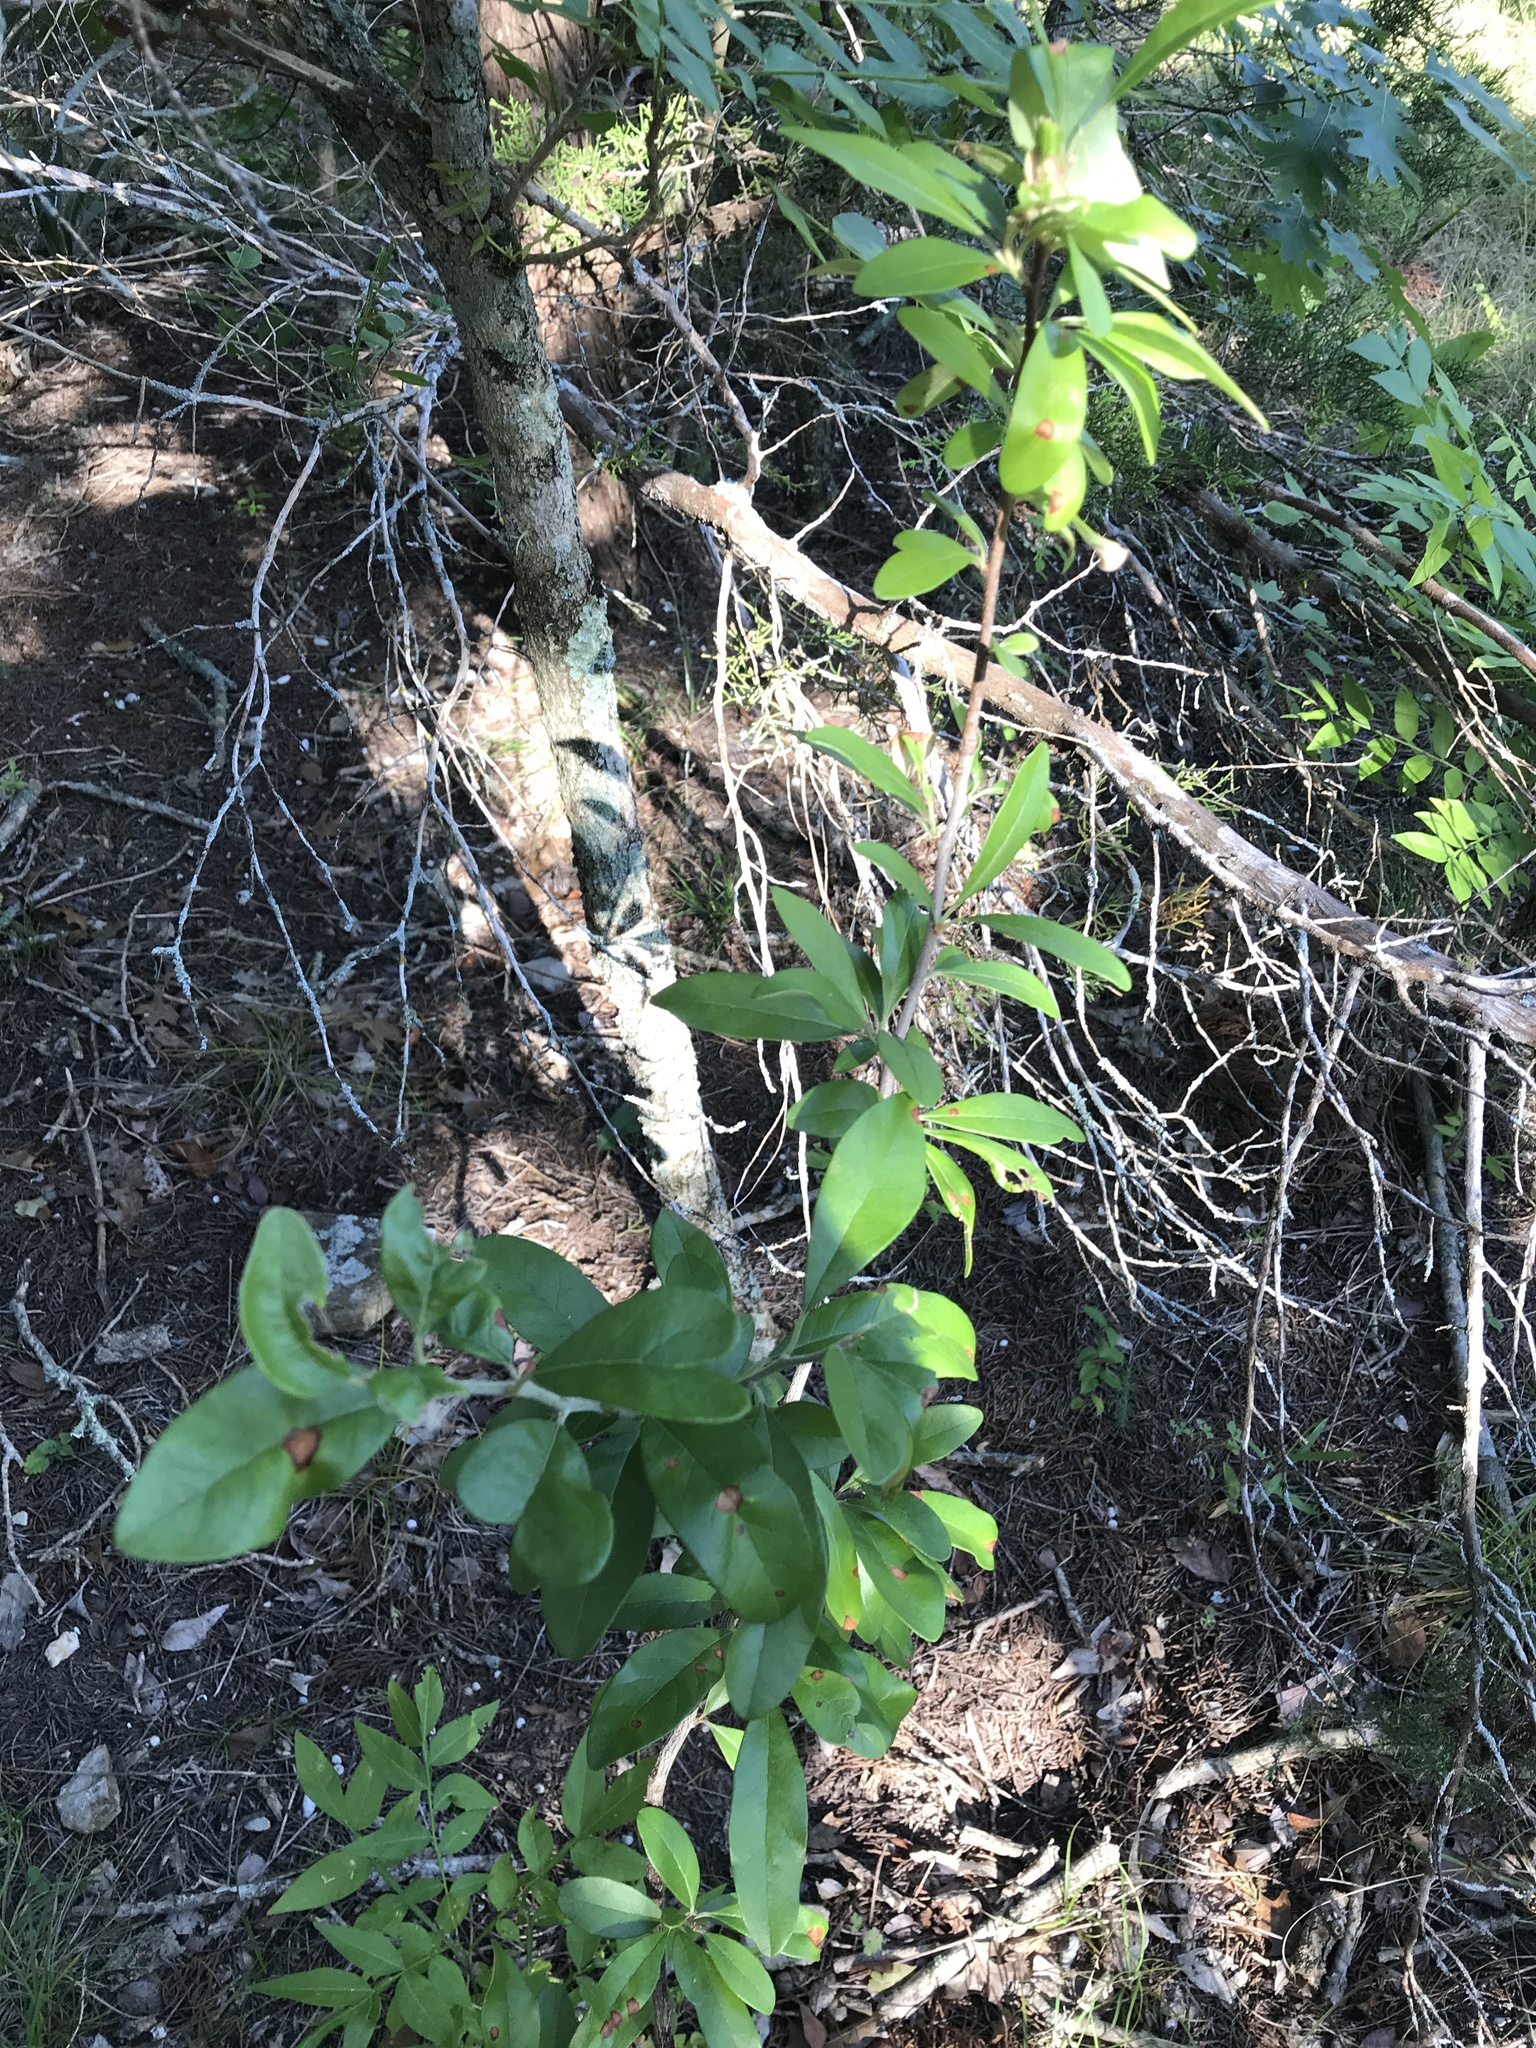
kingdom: Plantae
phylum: Tracheophyta
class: Magnoliopsida
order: Ericales
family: Sapotaceae
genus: Sideroxylon
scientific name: Sideroxylon lanuginosum
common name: Chittamwood
